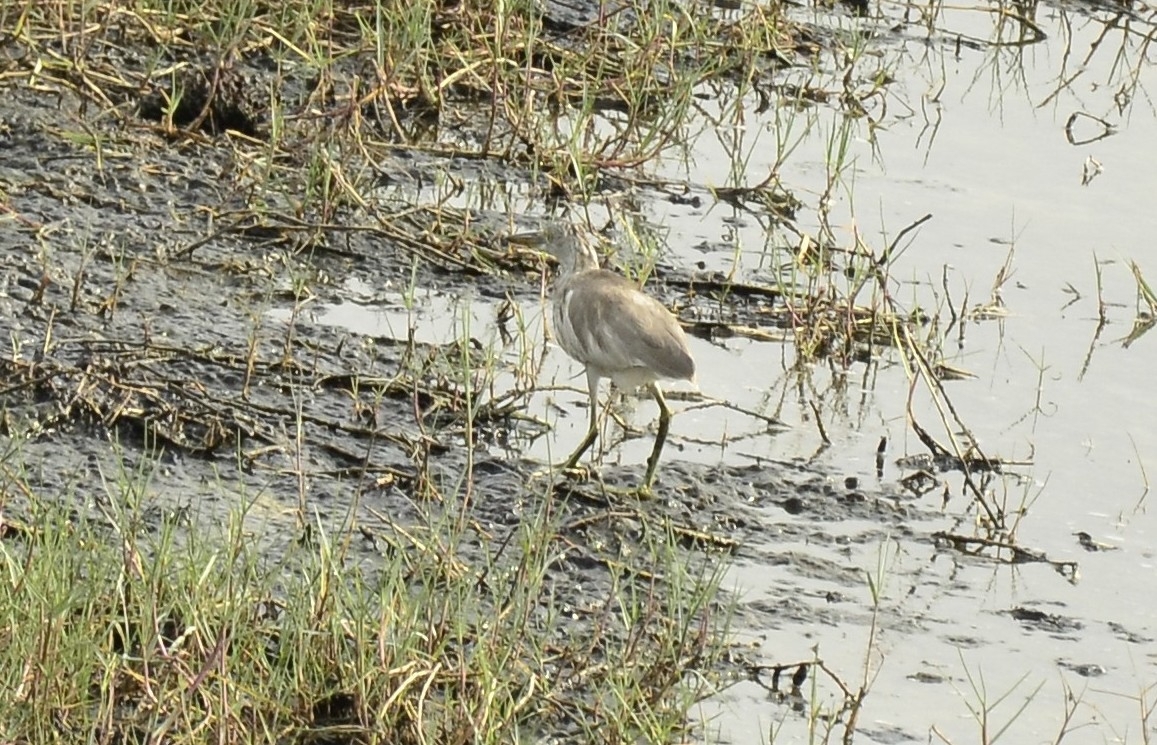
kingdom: Animalia
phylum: Chordata
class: Aves
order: Pelecaniformes
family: Ardeidae
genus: Ardeola
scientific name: Ardeola grayii
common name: Indian pond heron
